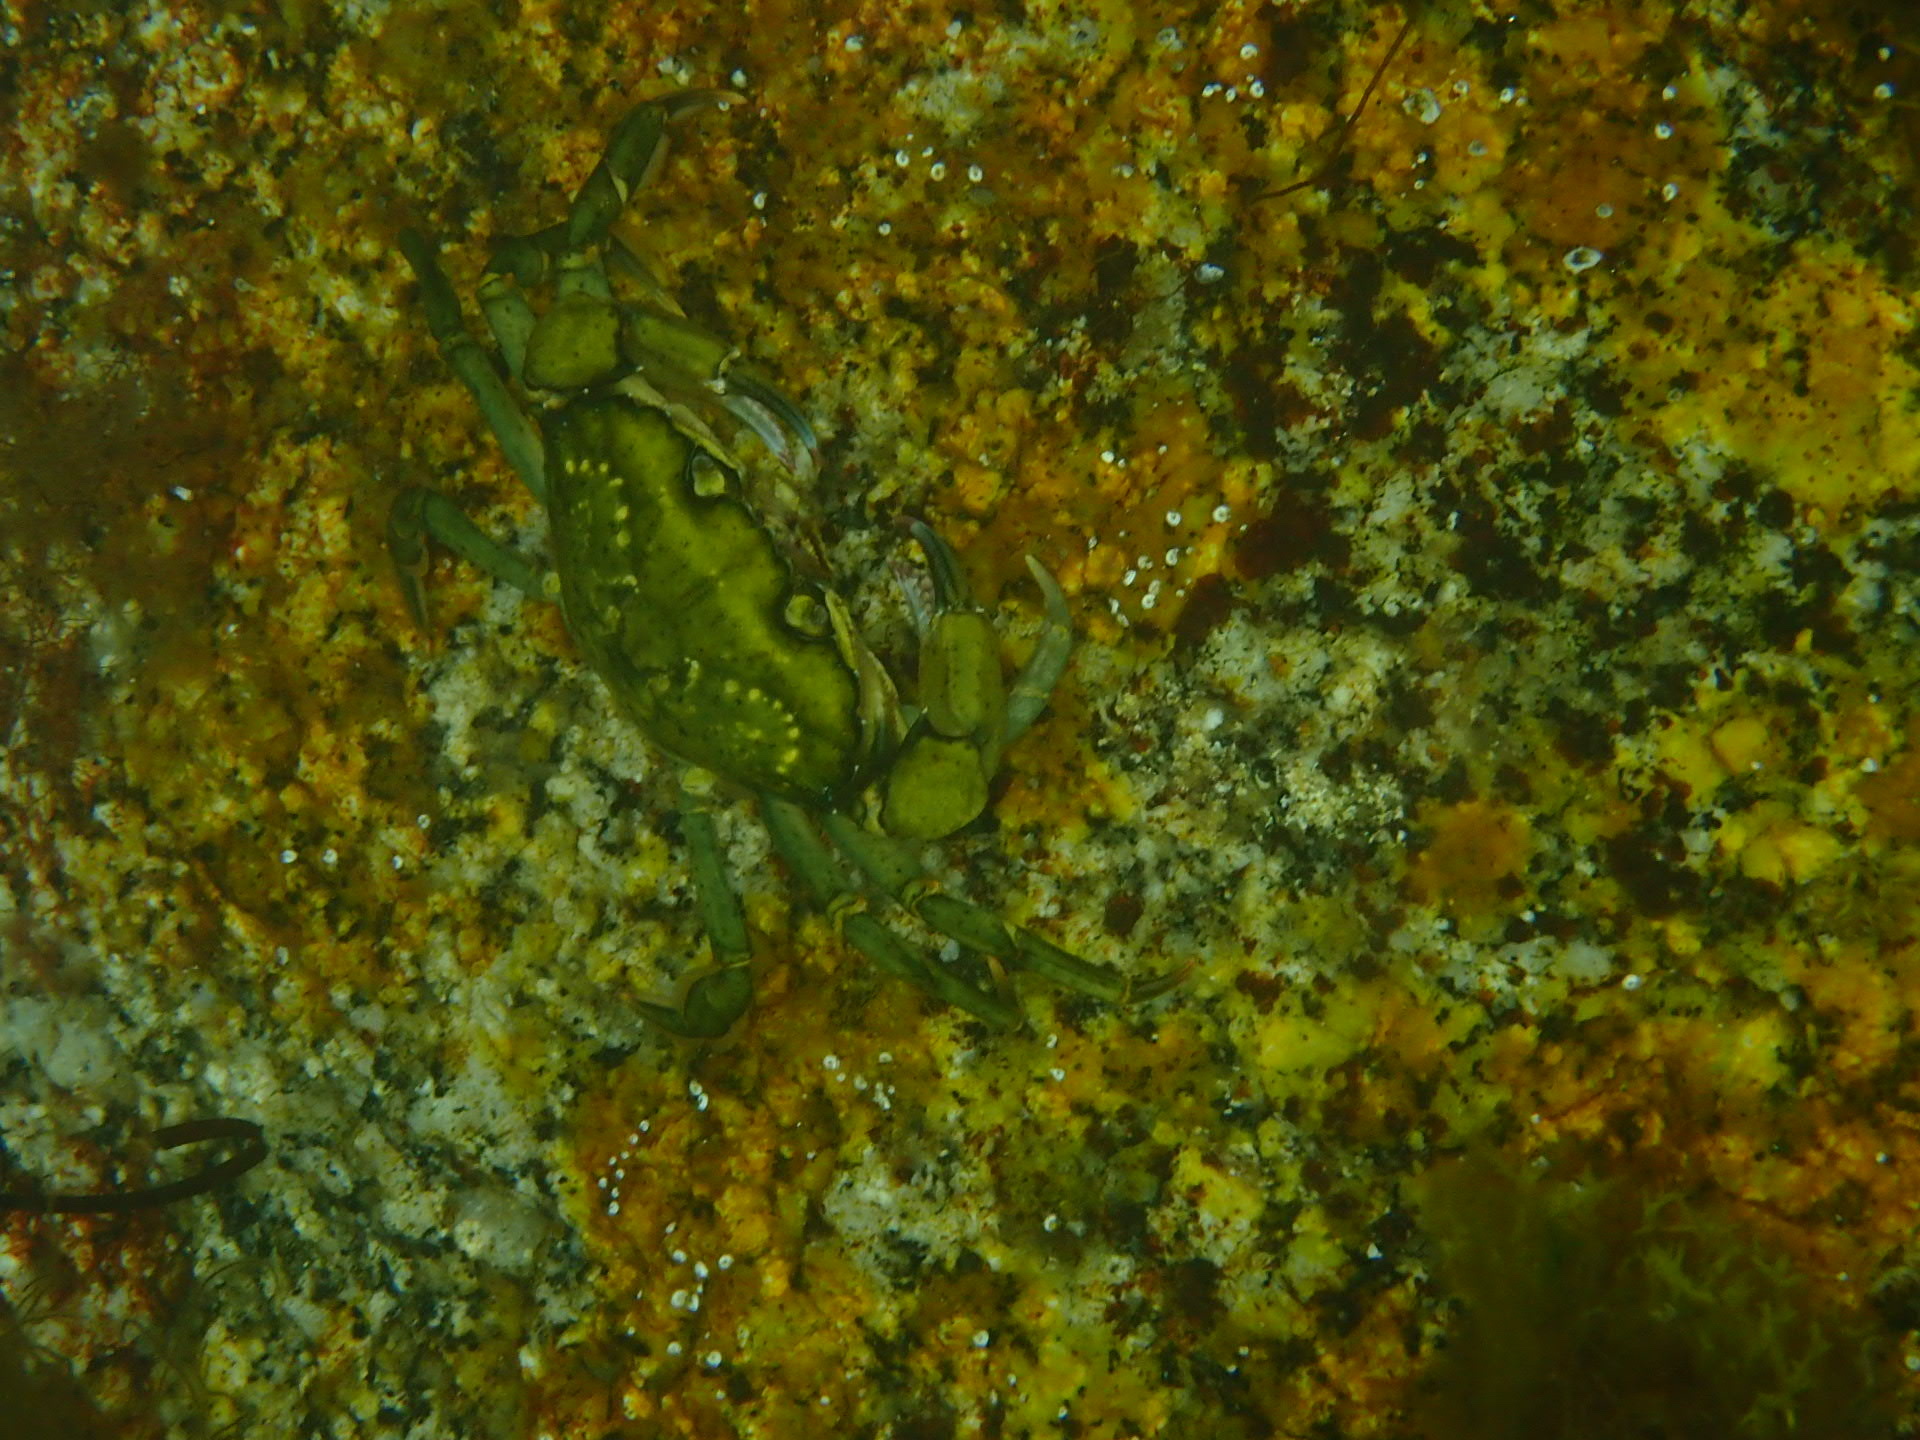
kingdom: Animalia
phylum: Arthropoda
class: Malacostraca
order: Decapoda
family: Carcinidae
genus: Carcinus
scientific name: Carcinus maenas
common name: European green crab
